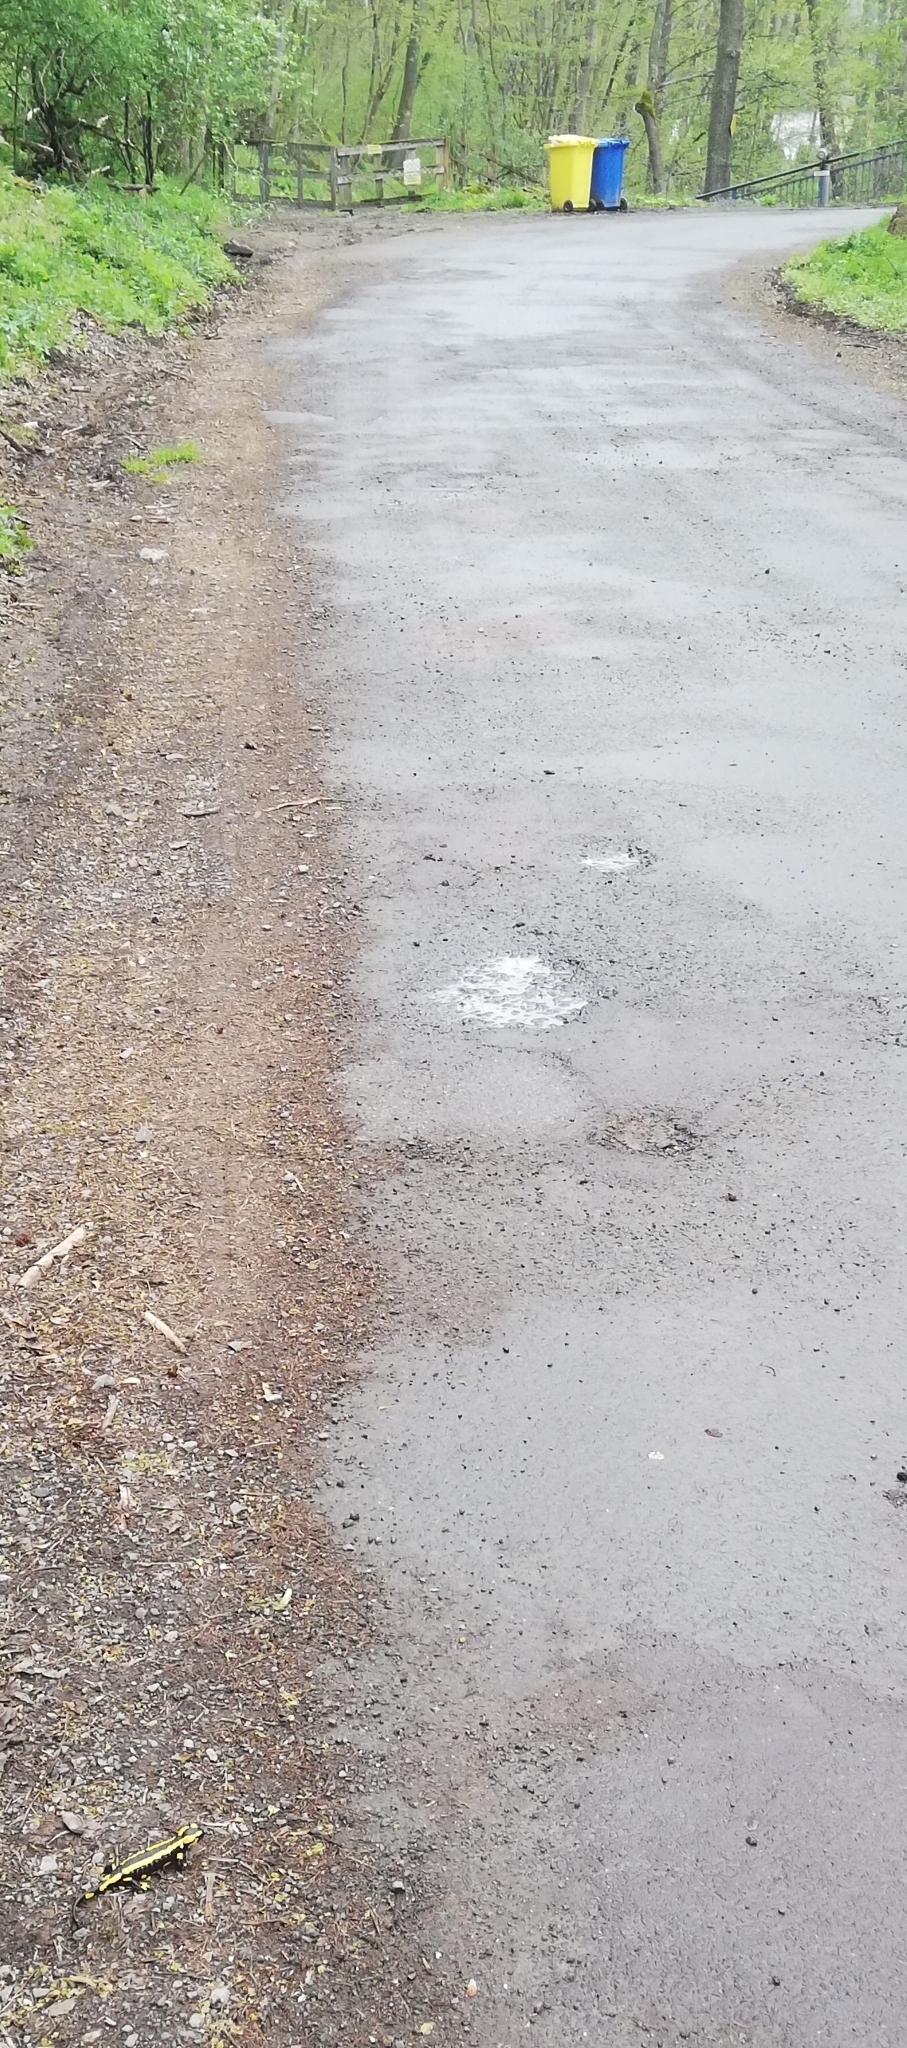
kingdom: Animalia
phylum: Chordata
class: Amphibia
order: Caudata
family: Salamandridae
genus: Salamandra
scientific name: Salamandra salamandra
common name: Fire salamander
